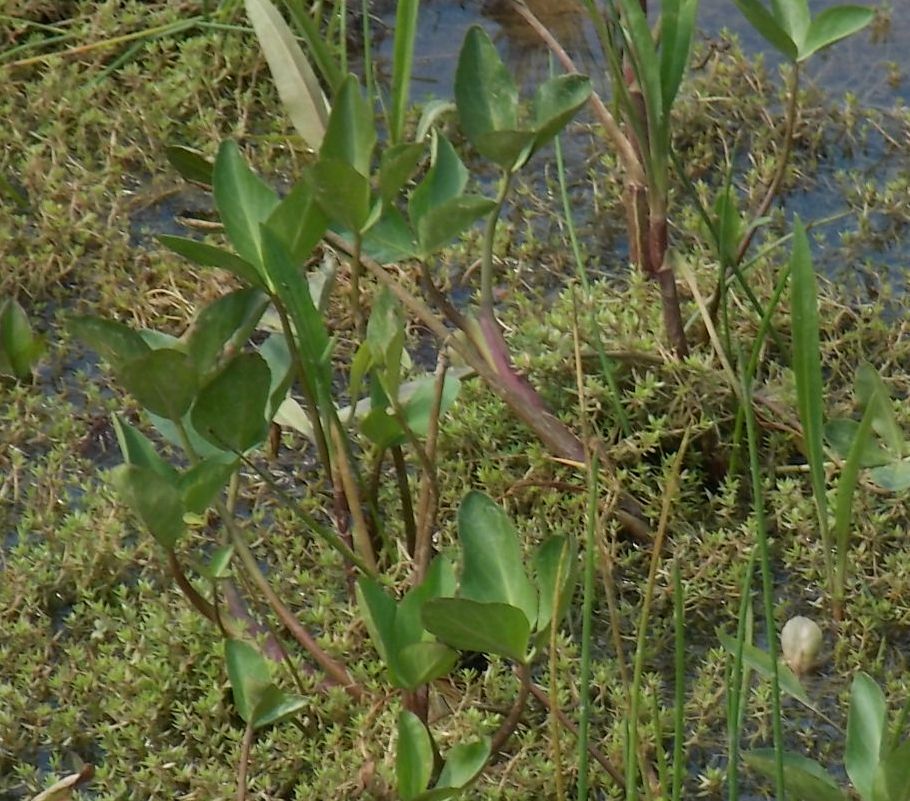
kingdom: Plantae
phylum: Tracheophyta
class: Magnoliopsida
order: Asterales
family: Menyanthaceae
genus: Menyanthes
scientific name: Menyanthes trifoliata
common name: Bogbean
